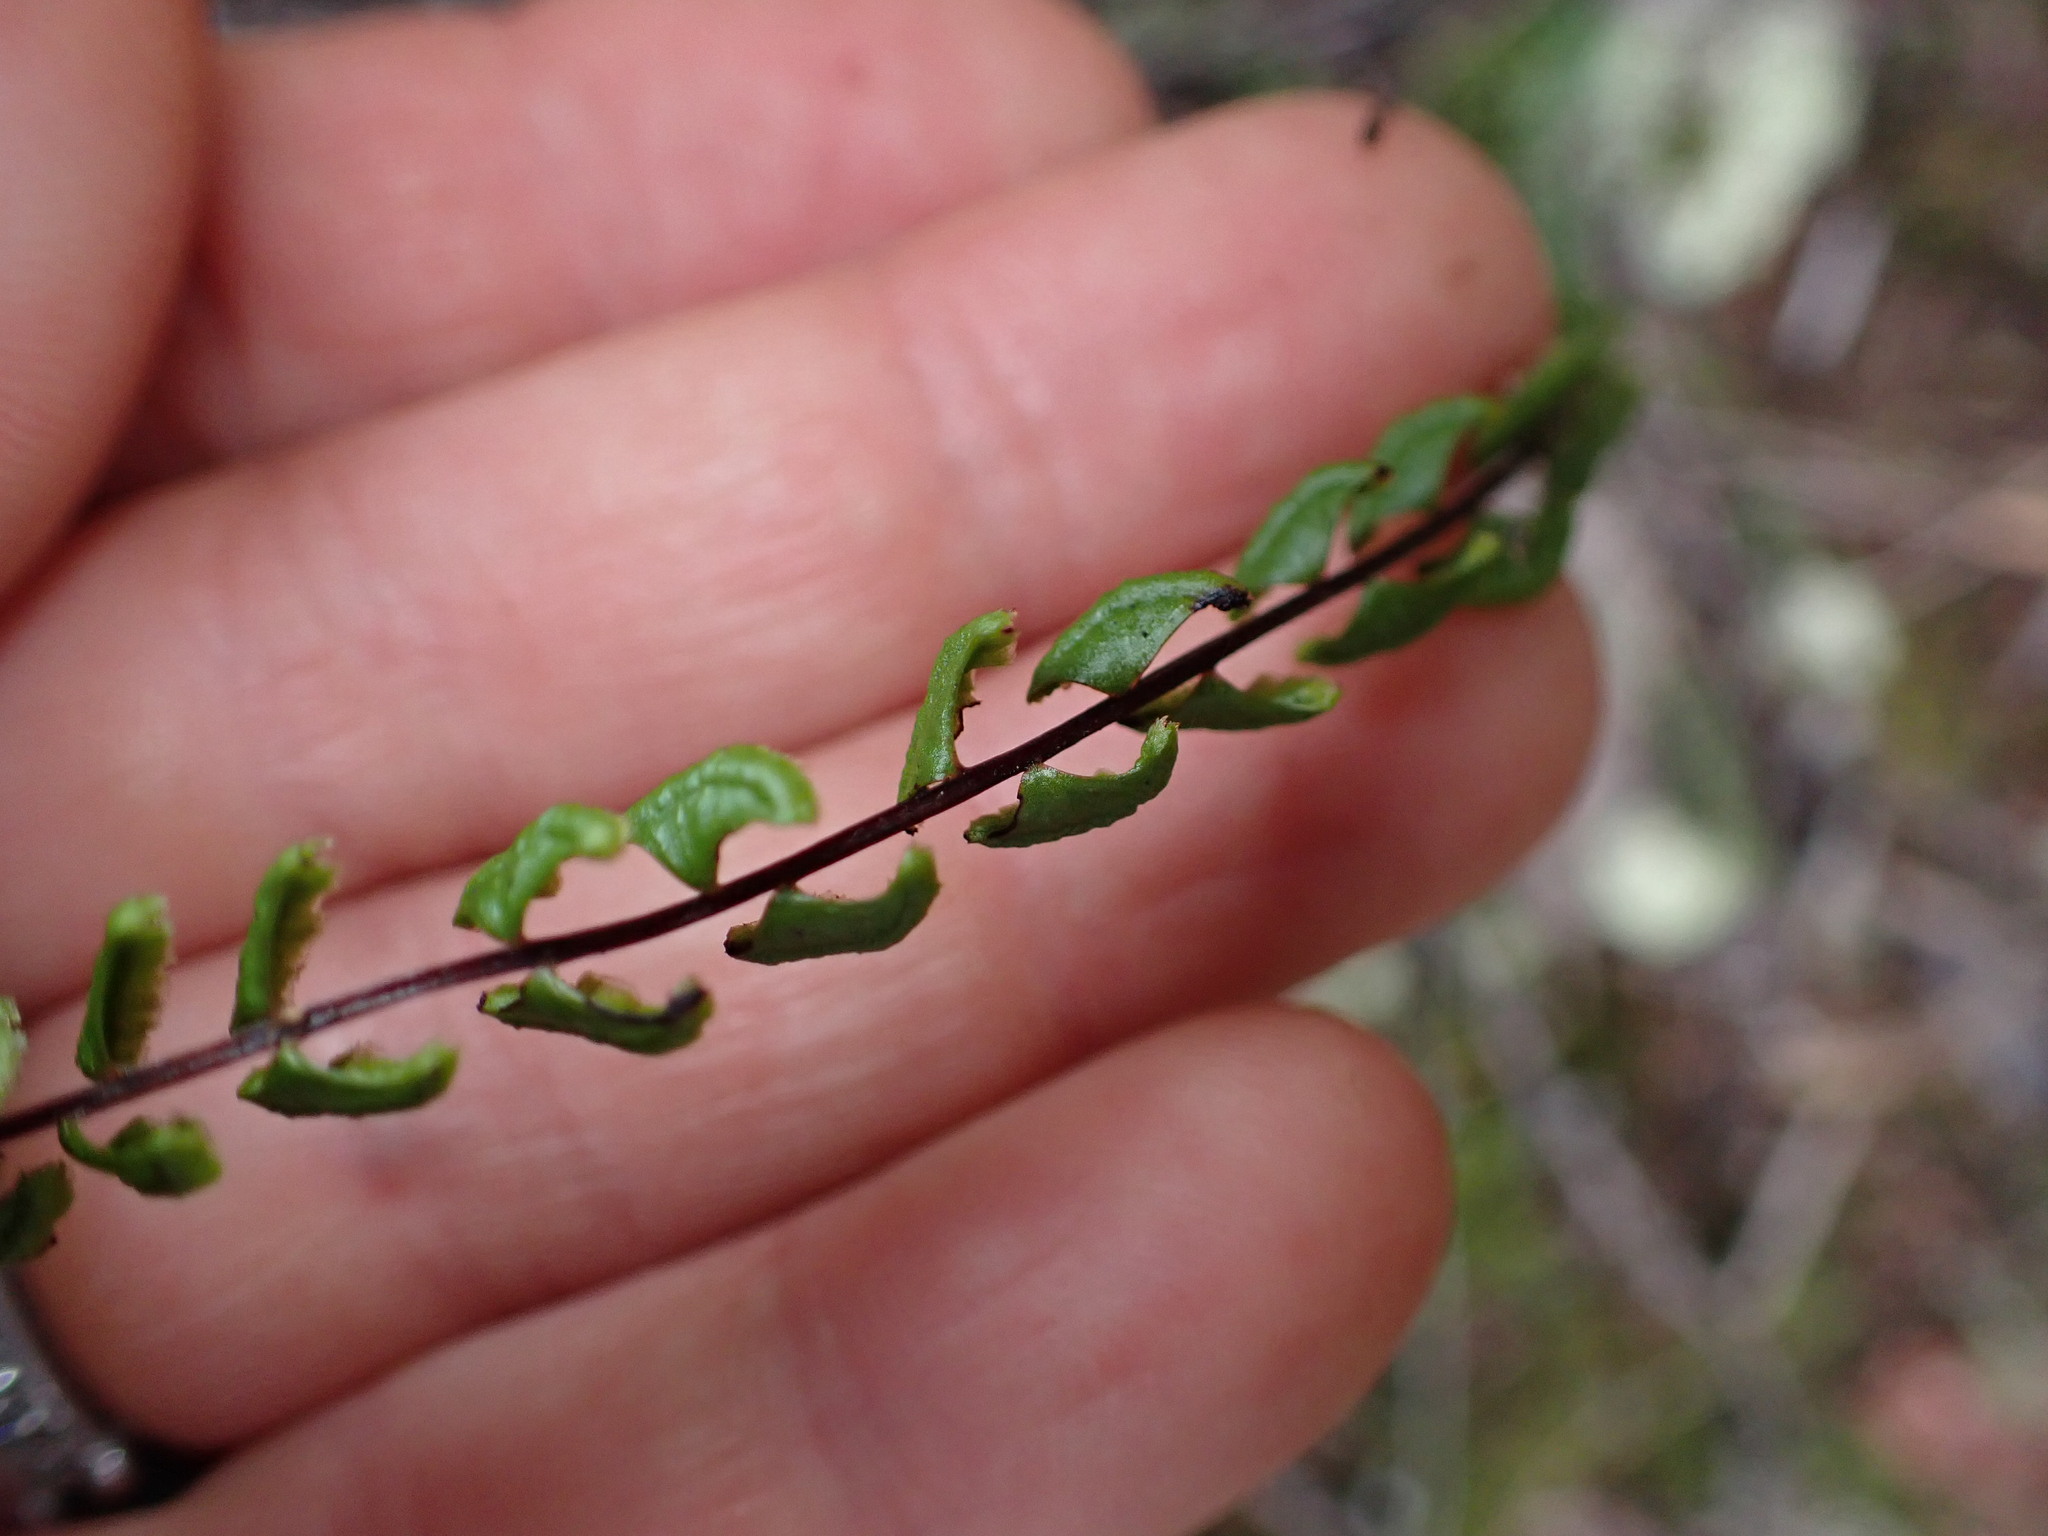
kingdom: Plantae
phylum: Tracheophyta
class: Polypodiopsida
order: Polypodiales
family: Lindsaeaceae
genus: Lindsaea
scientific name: Lindsaea linearis
